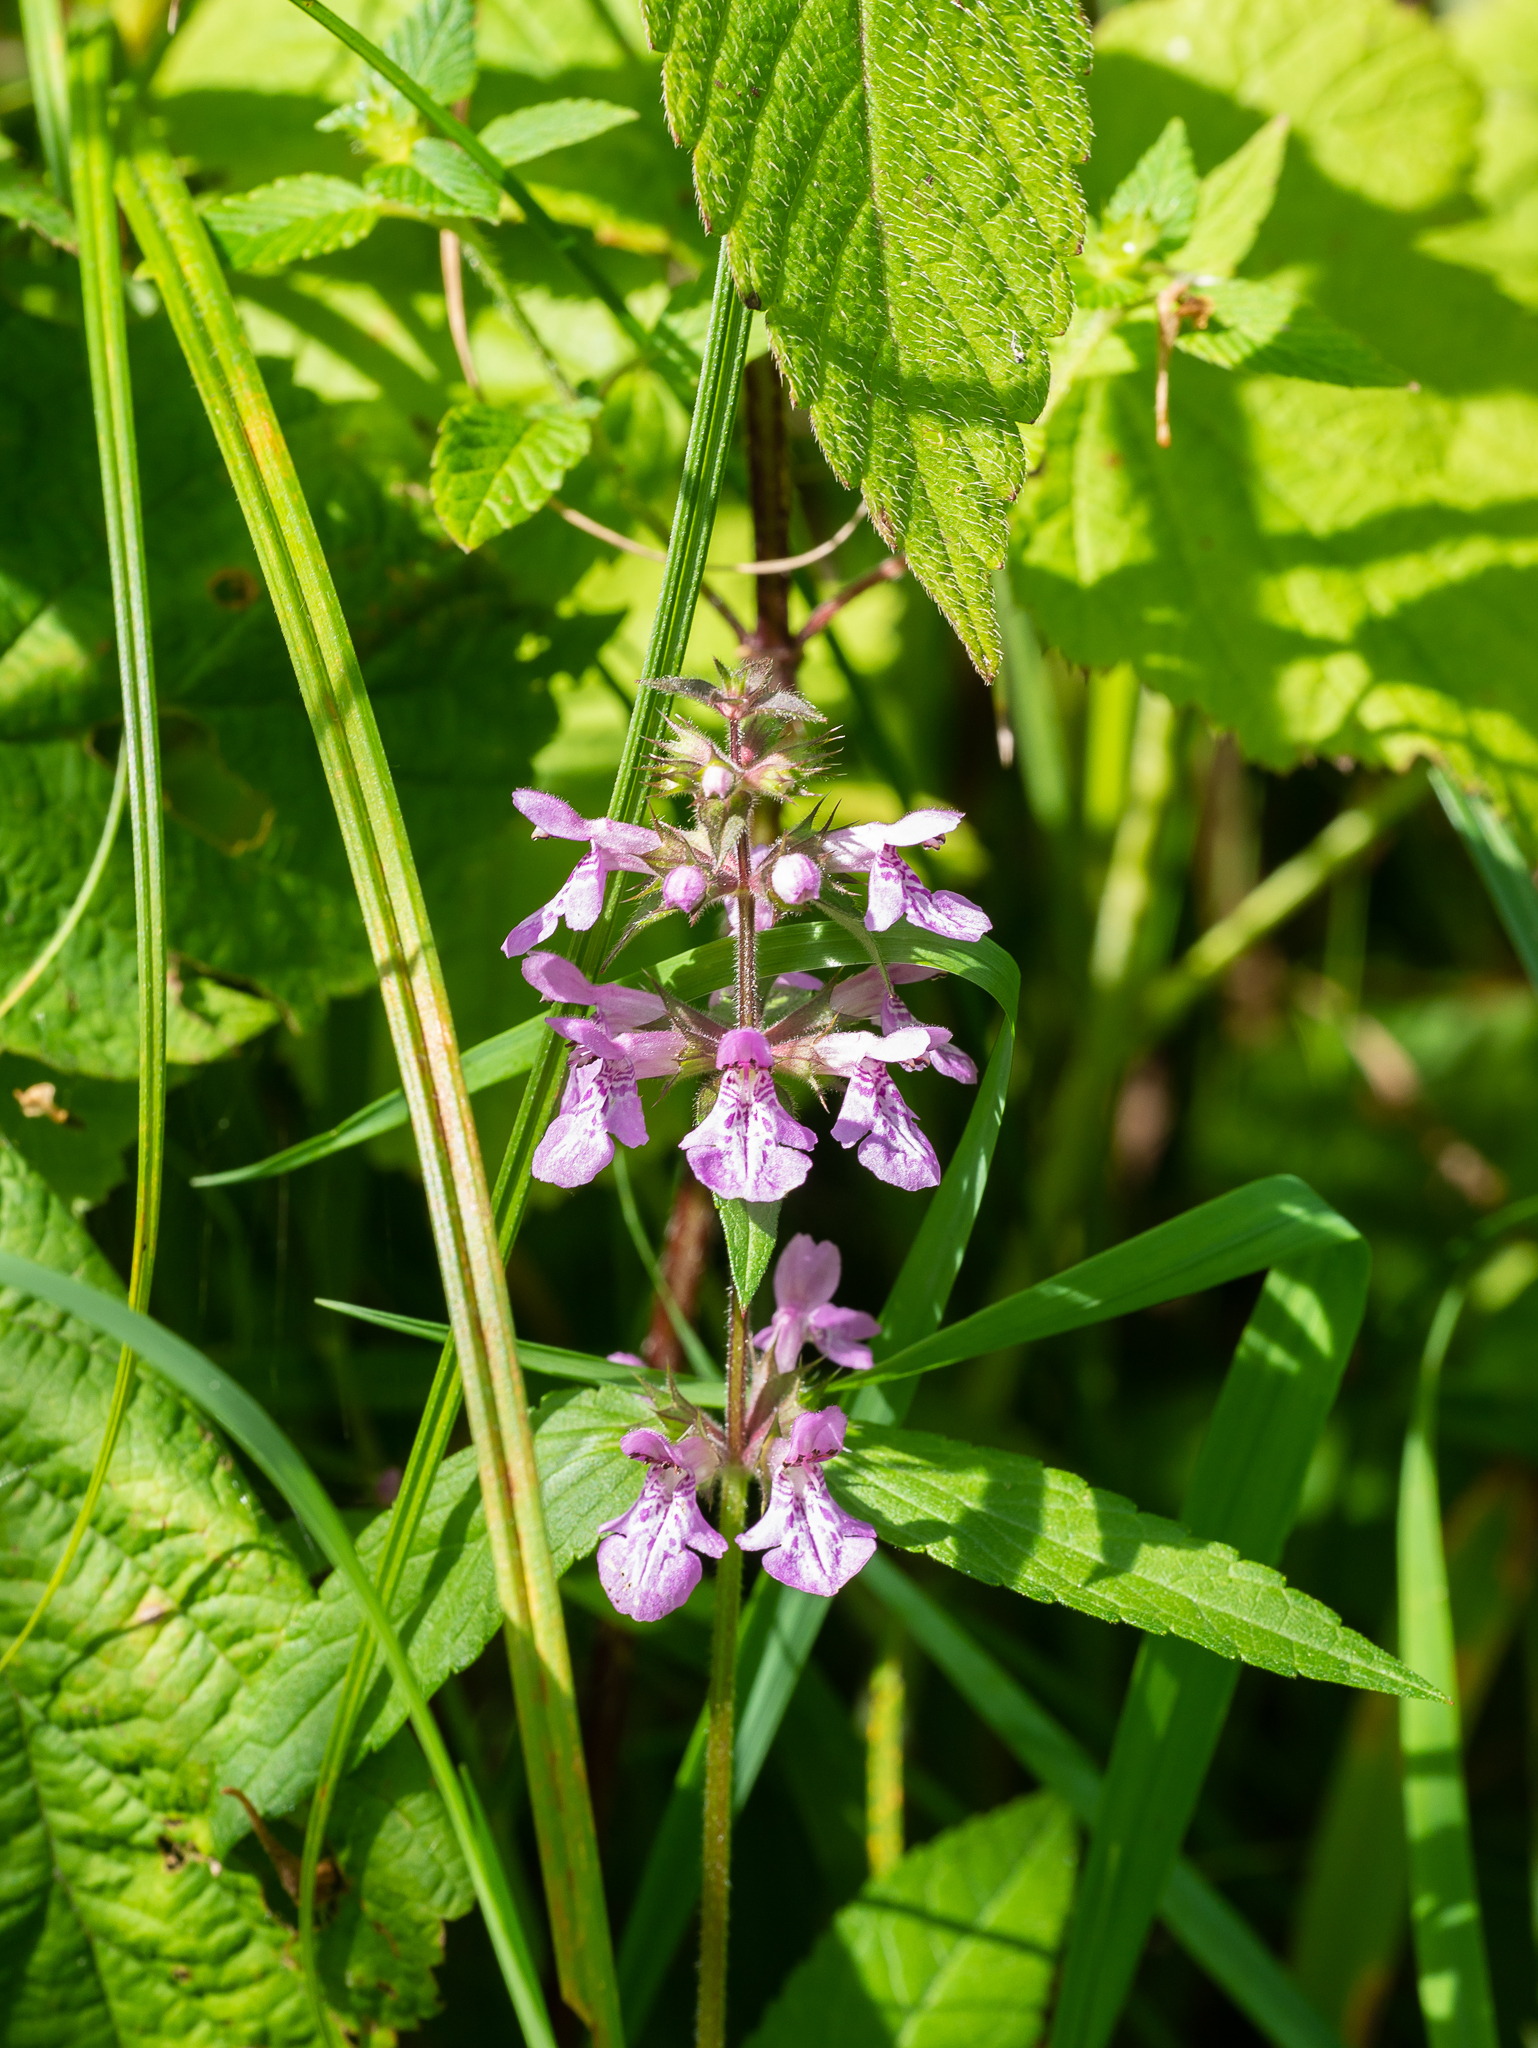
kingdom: Plantae
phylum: Tracheophyta
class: Magnoliopsida
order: Lamiales
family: Lamiaceae
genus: Stachys
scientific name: Stachys palustris
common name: Marsh woundwort
